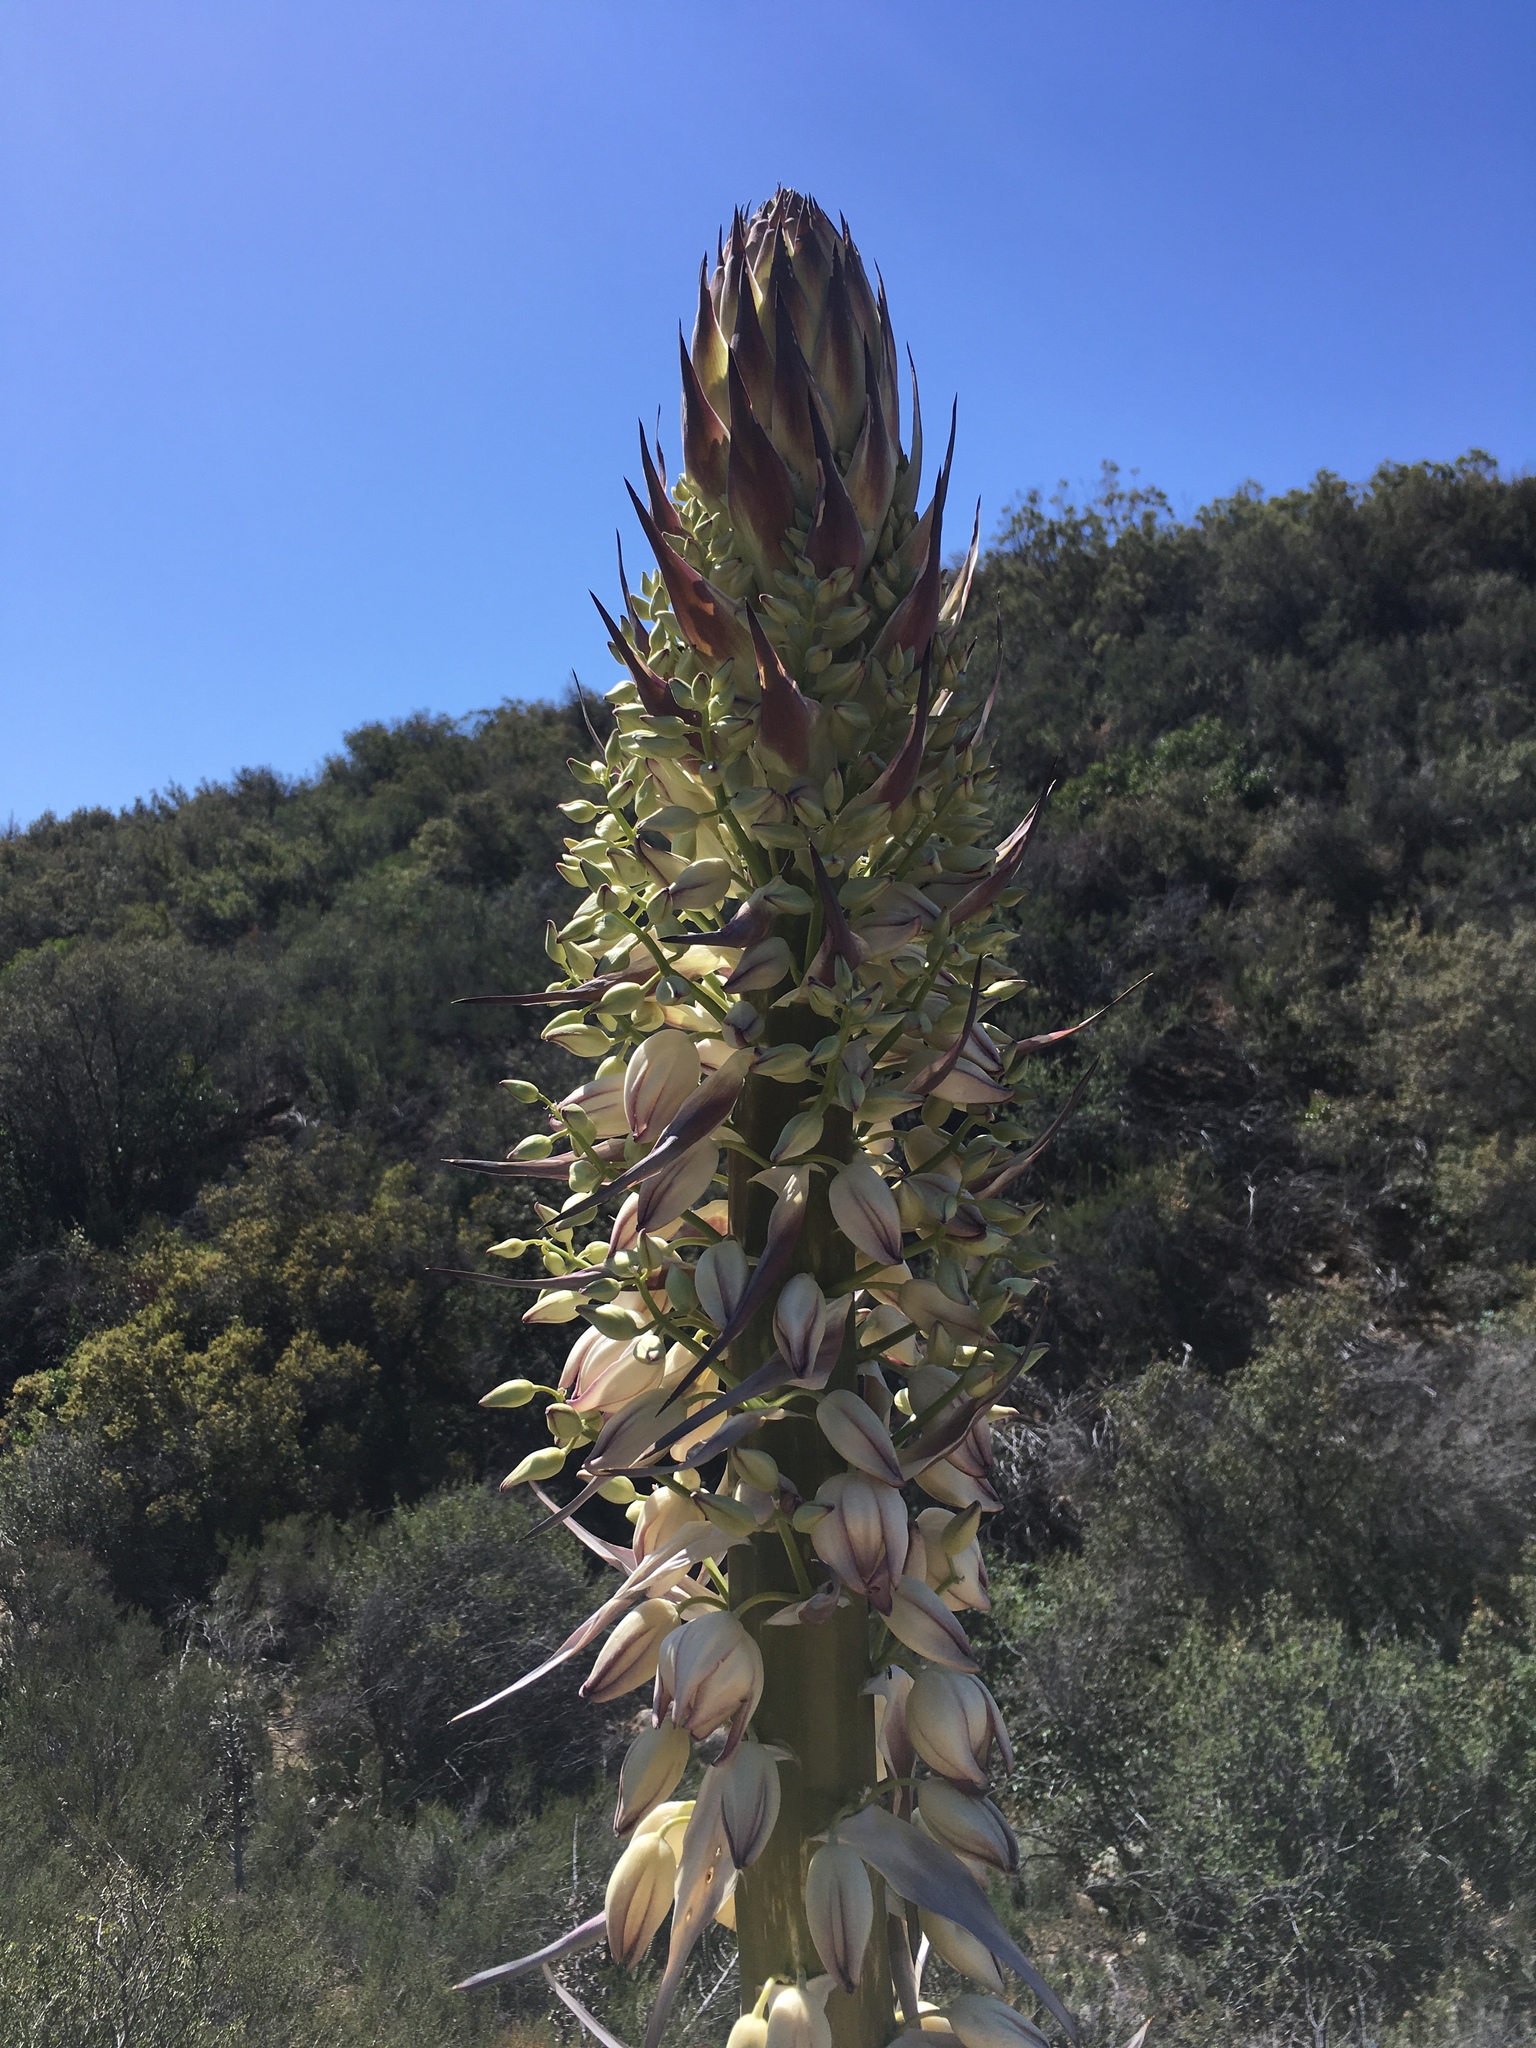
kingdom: Plantae
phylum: Tracheophyta
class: Liliopsida
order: Asparagales
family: Asparagaceae
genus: Hesperoyucca
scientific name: Hesperoyucca whipplei
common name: Our lord's-candle
